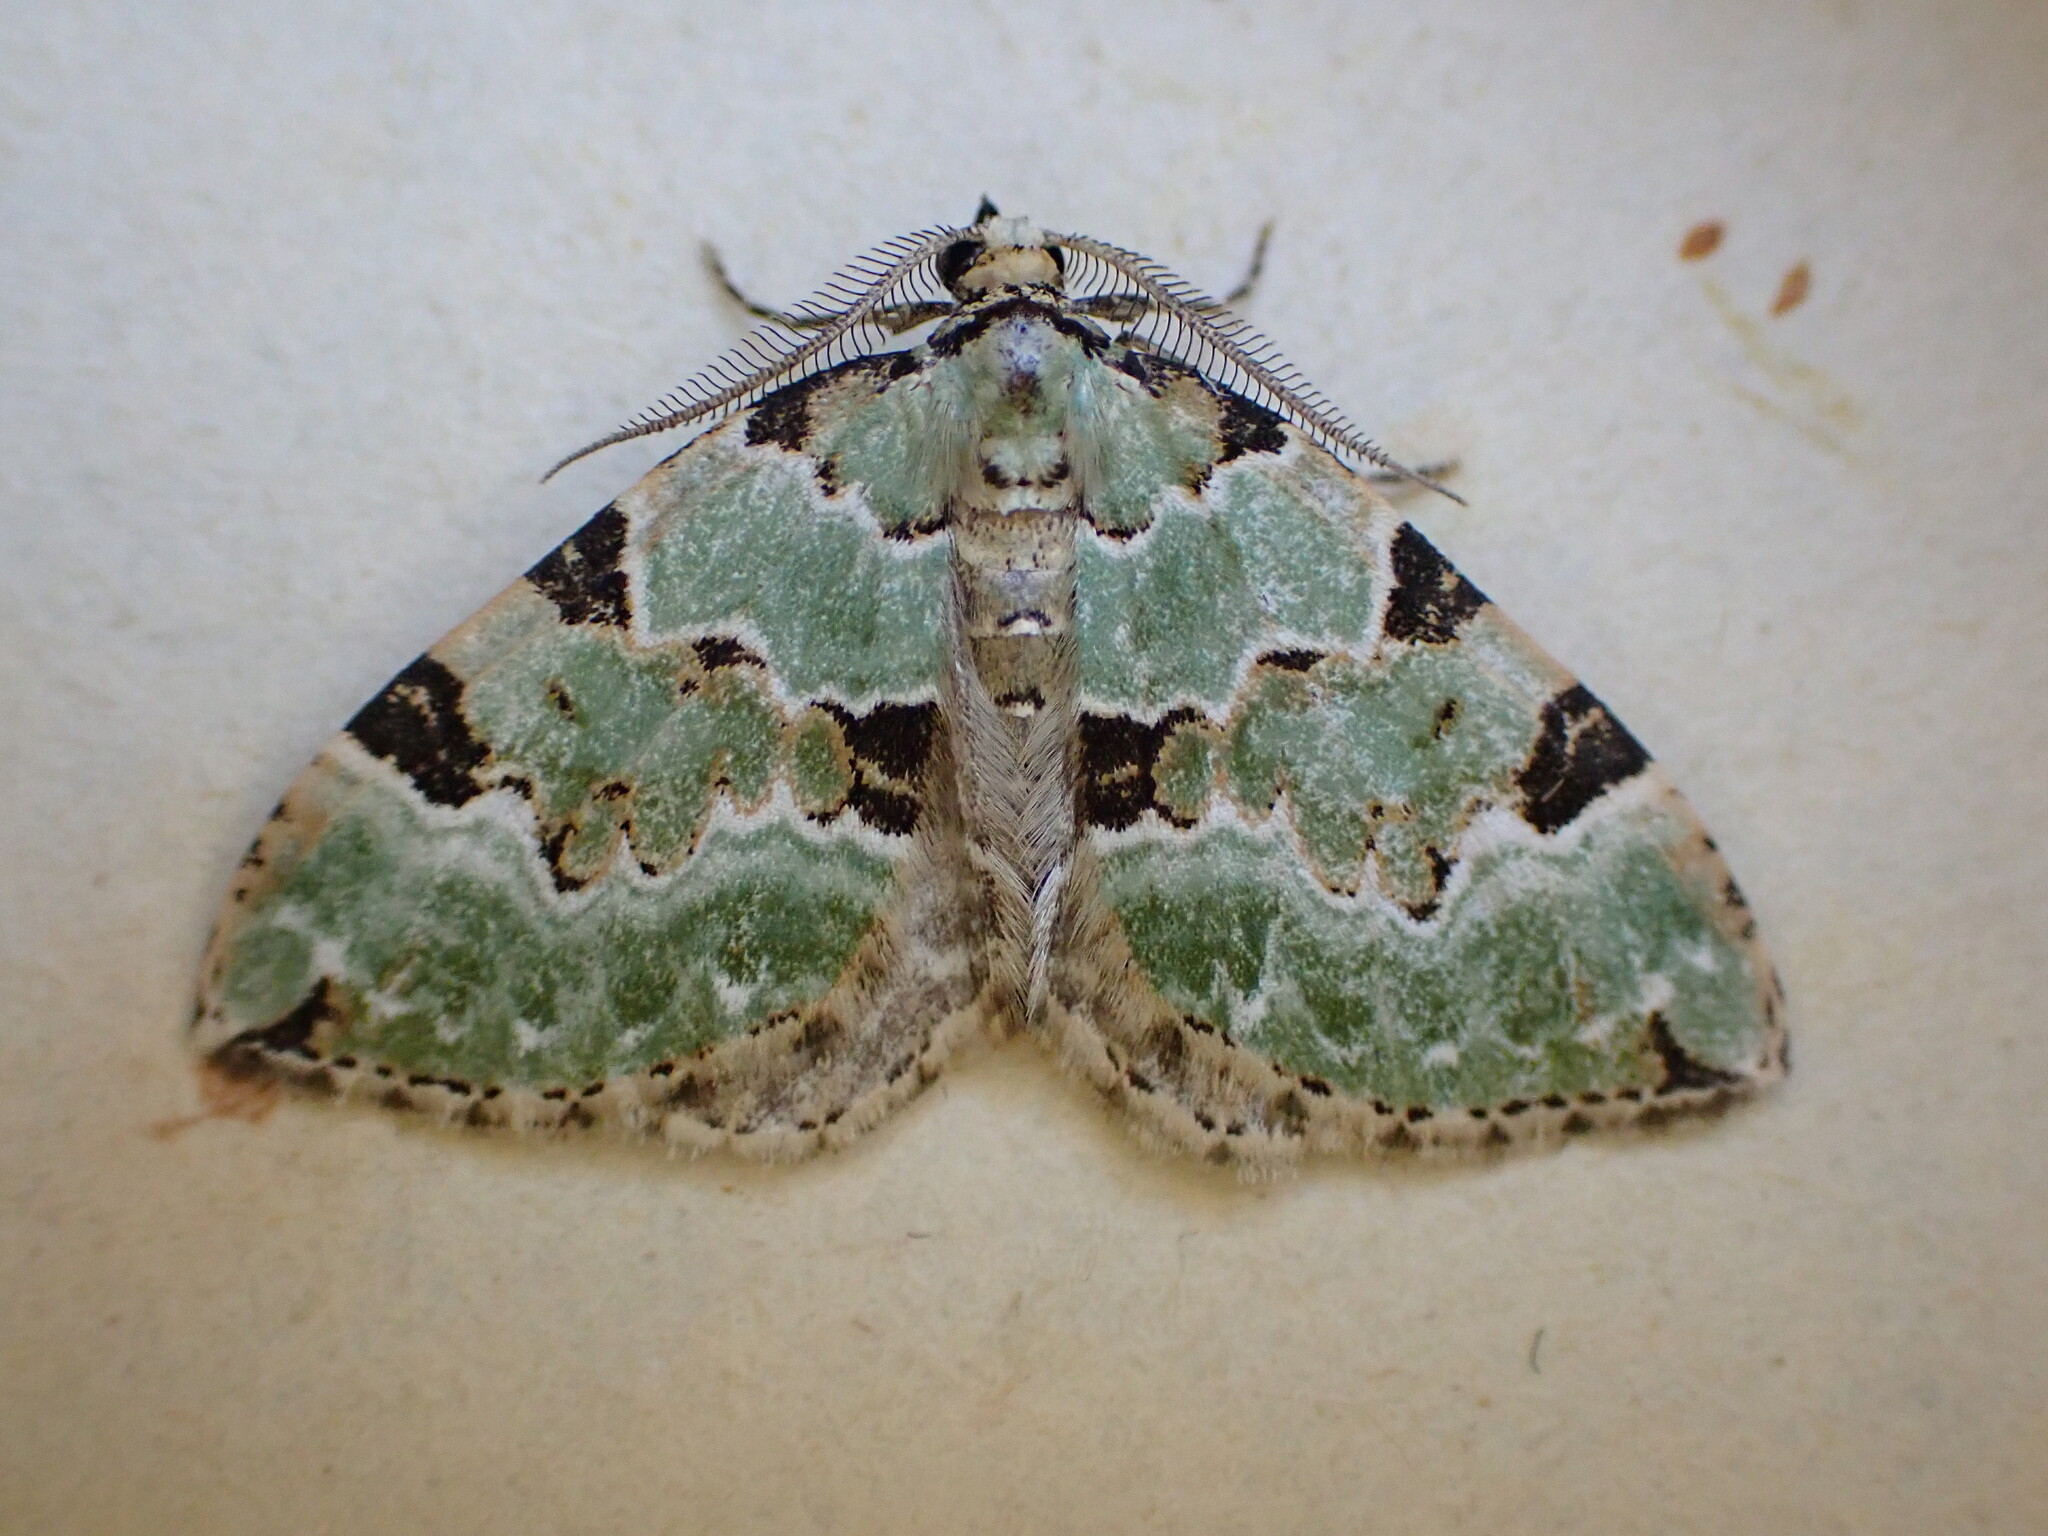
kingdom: Animalia
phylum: Arthropoda
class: Insecta
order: Lepidoptera
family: Geometridae
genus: Colostygia
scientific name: Colostygia pectinataria
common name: Green carpet
